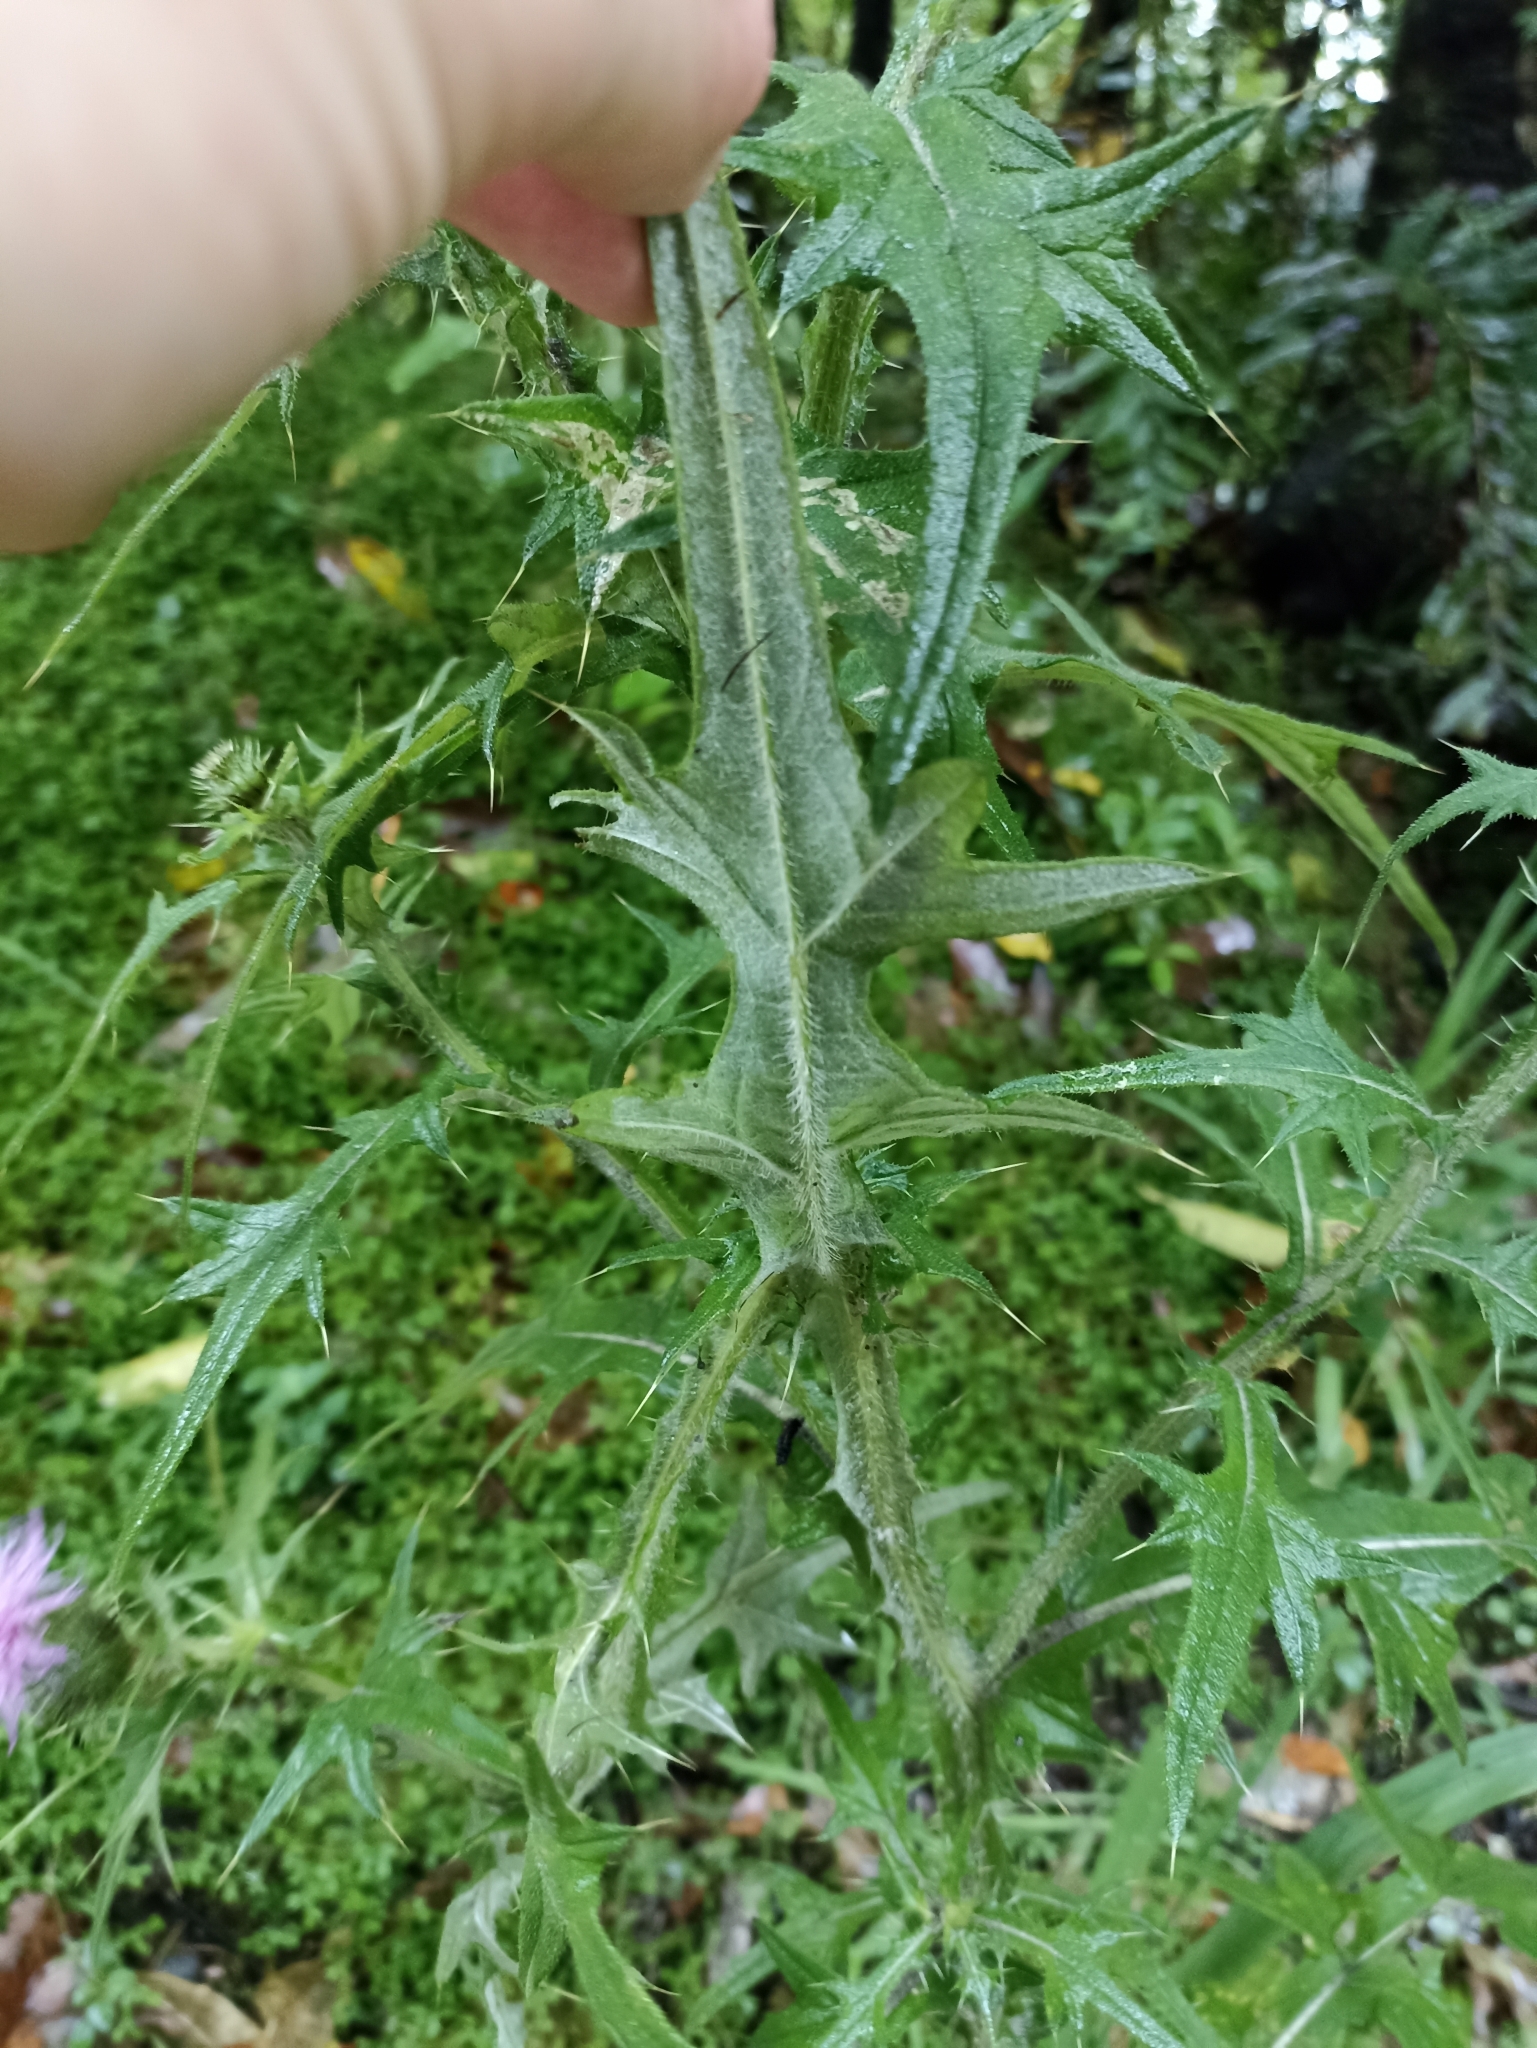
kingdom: Plantae
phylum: Tracheophyta
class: Magnoliopsida
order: Asterales
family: Asteraceae
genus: Cirsium
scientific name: Cirsium vulgare
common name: Bull thistle
